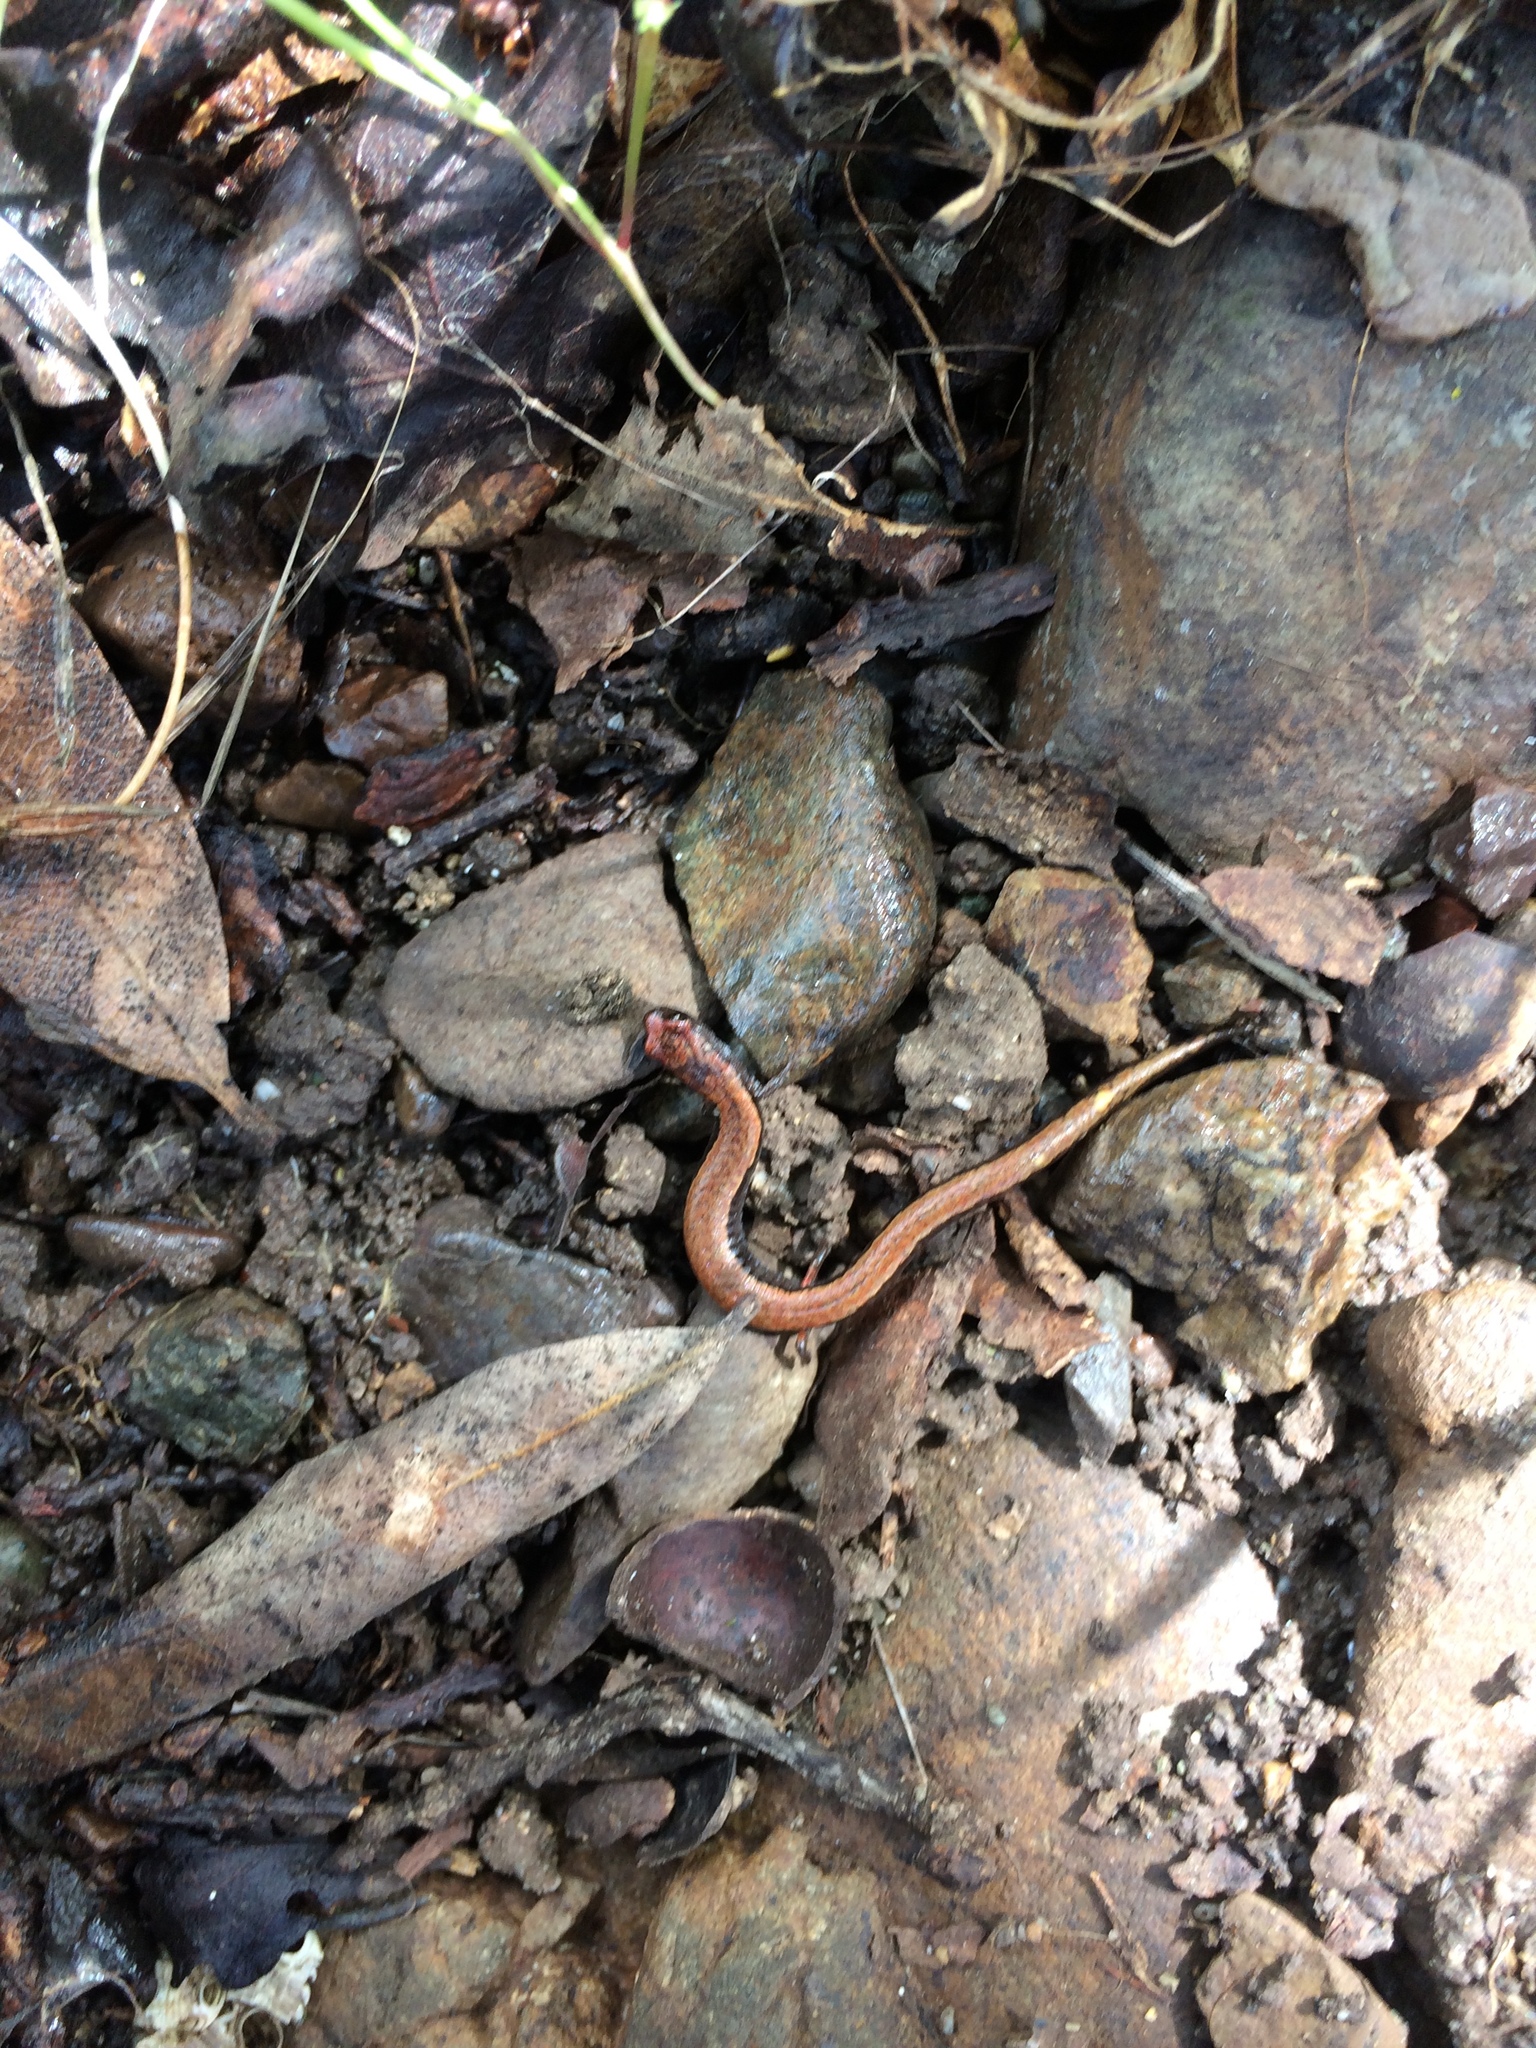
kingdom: Animalia
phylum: Chordata
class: Amphibia
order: Caudata
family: Plethodontidae
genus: Batrachoseps
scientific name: Batrachoseps attenuatus
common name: California slender salamander
